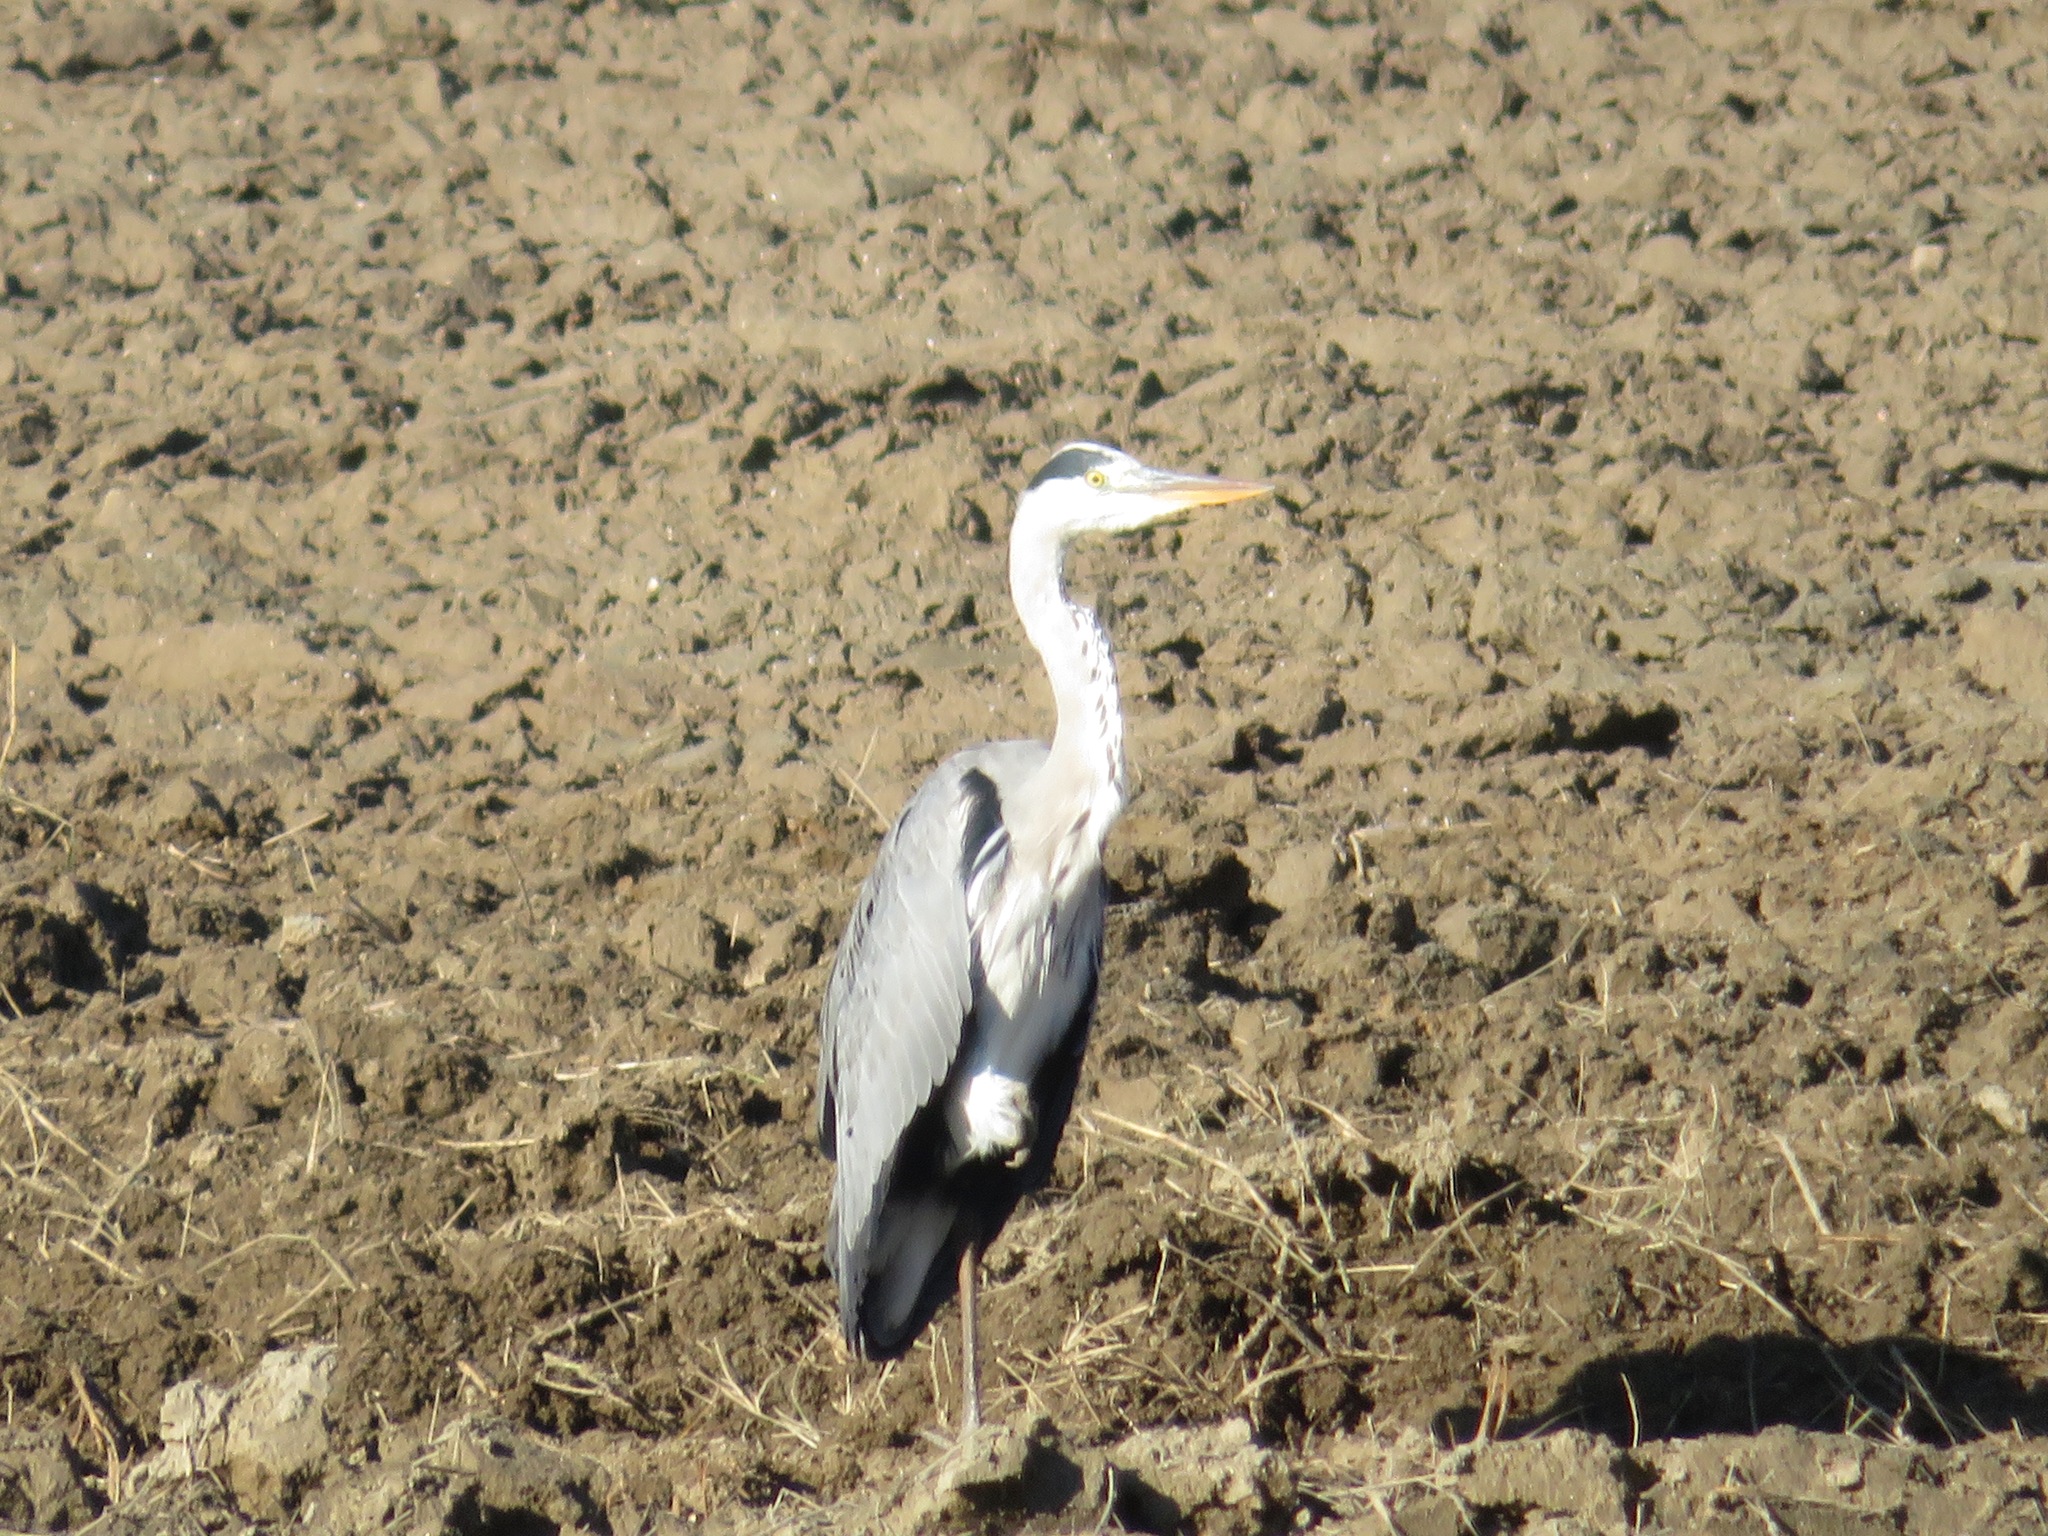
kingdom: Animalia
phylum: Chordata
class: Aves
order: Pelecaniformes
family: Ardeidae
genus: Ardea
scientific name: Ardea cinerea
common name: Grey heron
